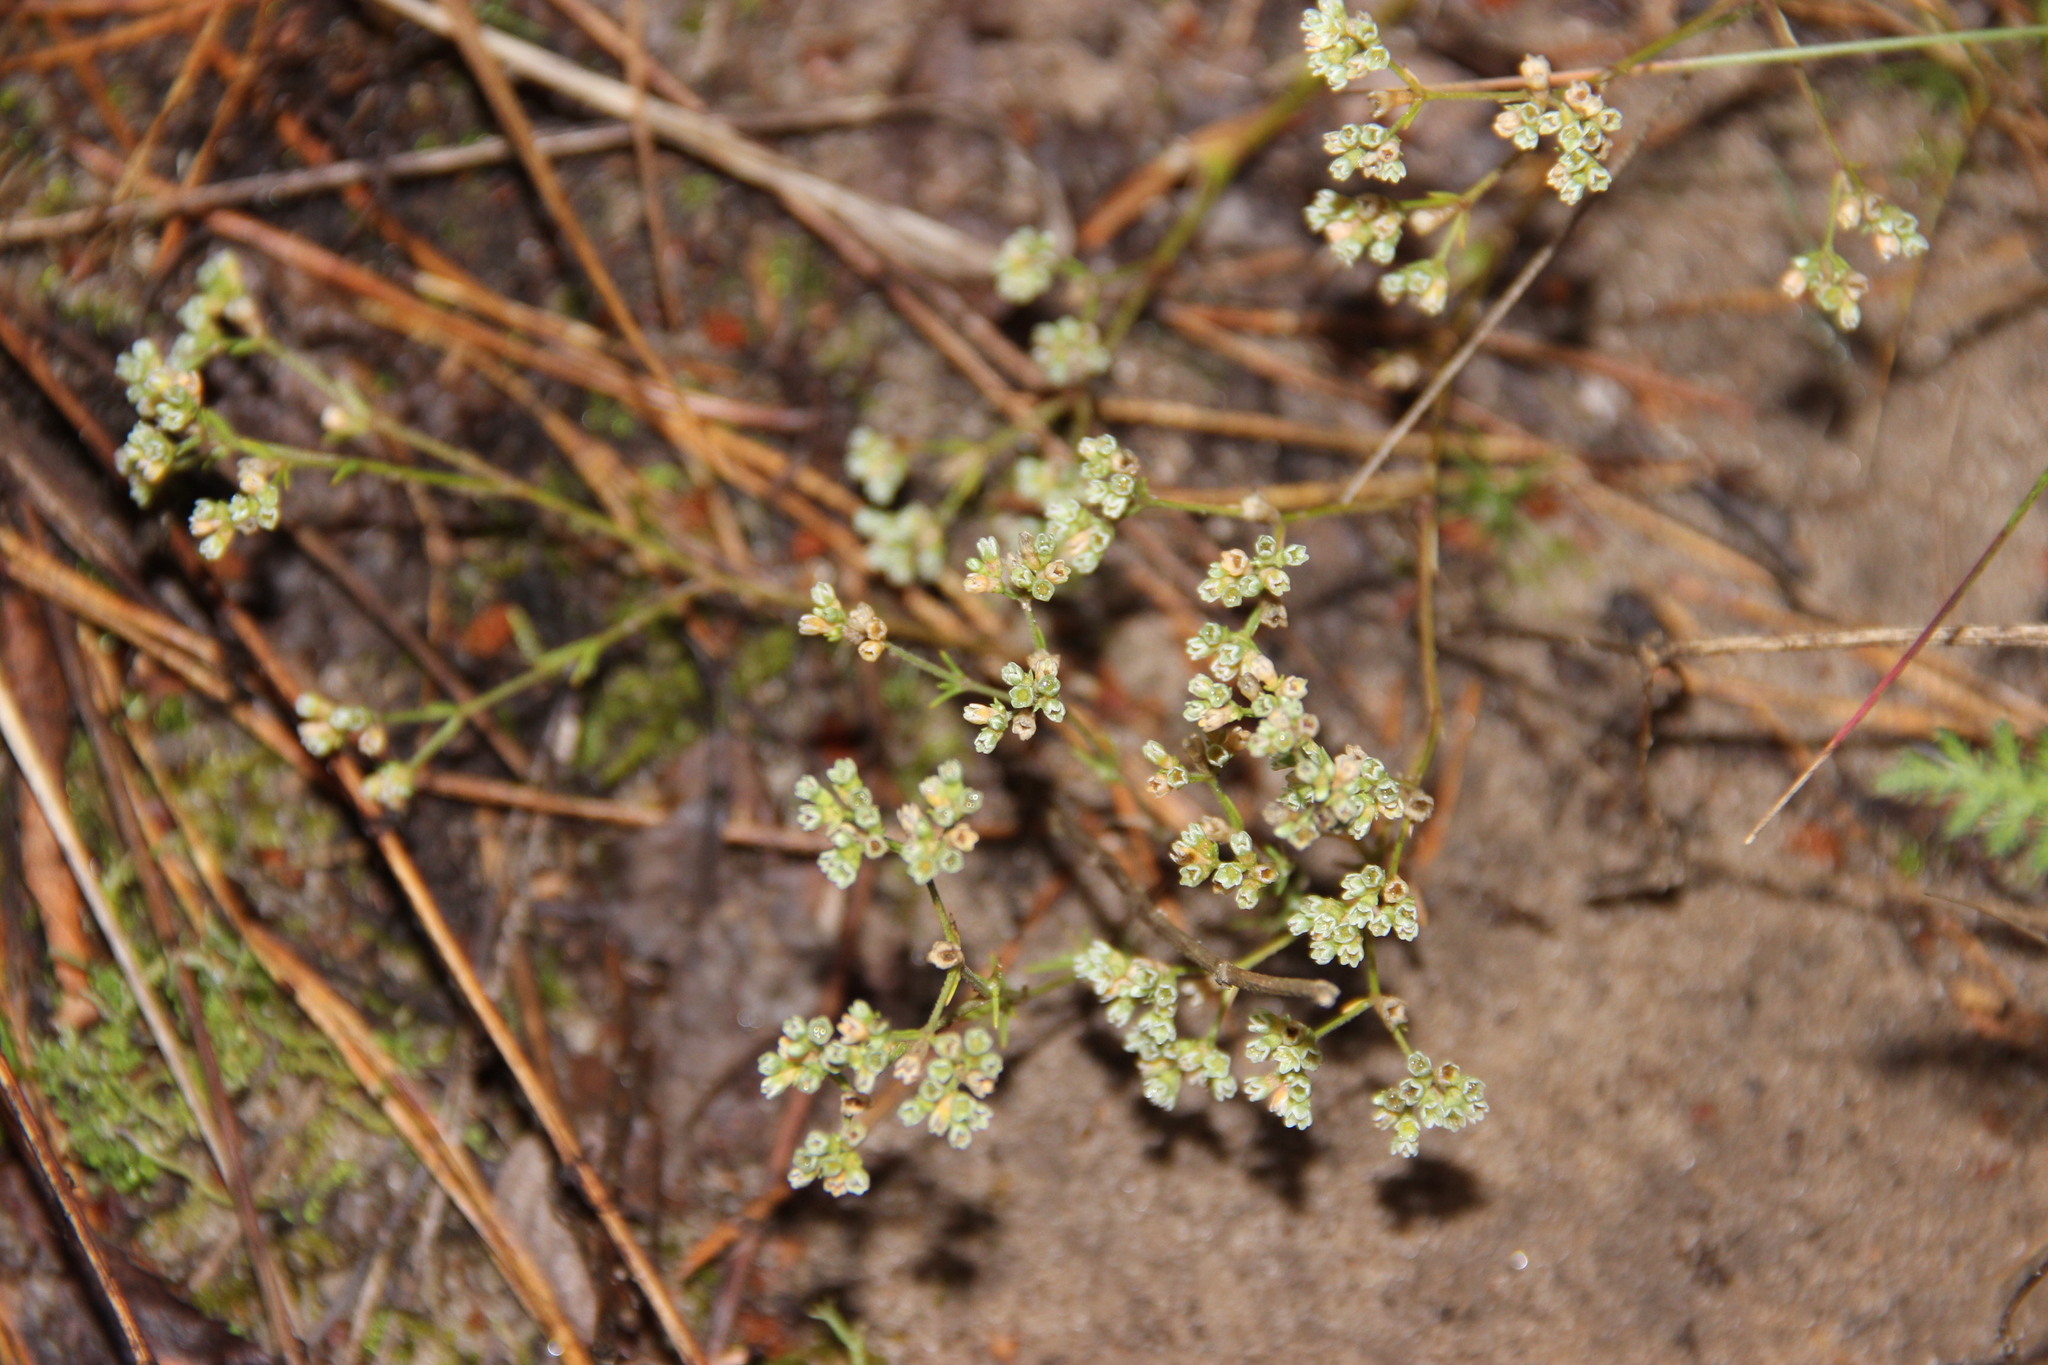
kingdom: Plantae
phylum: Tracheophyta
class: Magnoliopsida
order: Caryophyllales
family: Caryophyllaceae
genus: Scleranthus
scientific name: Scleranthus perennis
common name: Perennial knawel
